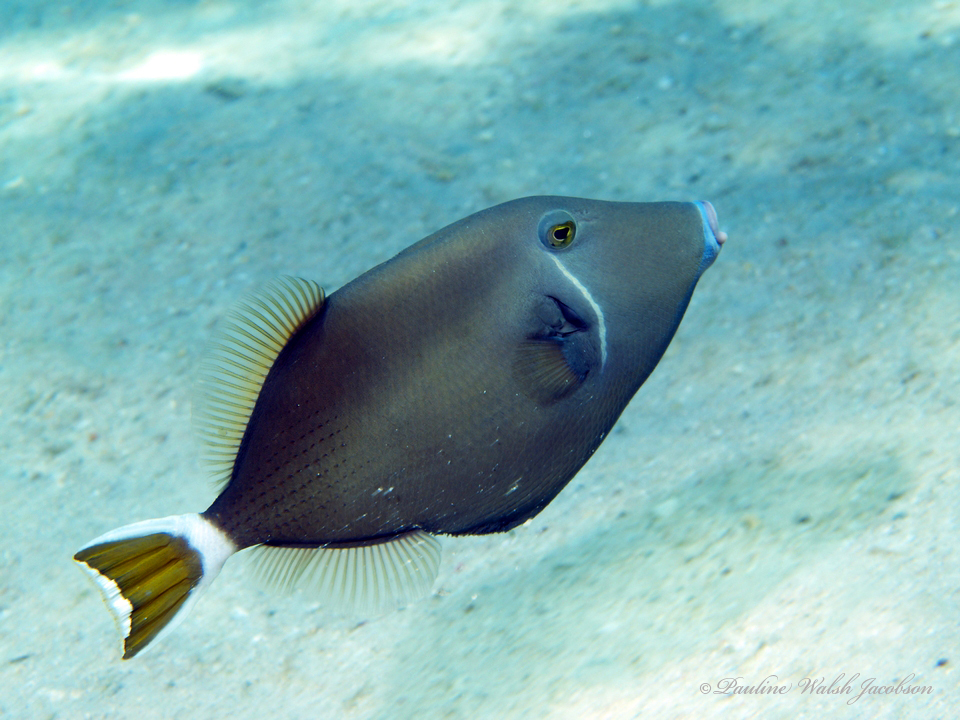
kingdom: Animalia
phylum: Chordata
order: Tetraodontiformes
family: Balistidae
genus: Sufflamen
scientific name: Sufflamen albicaudatum
